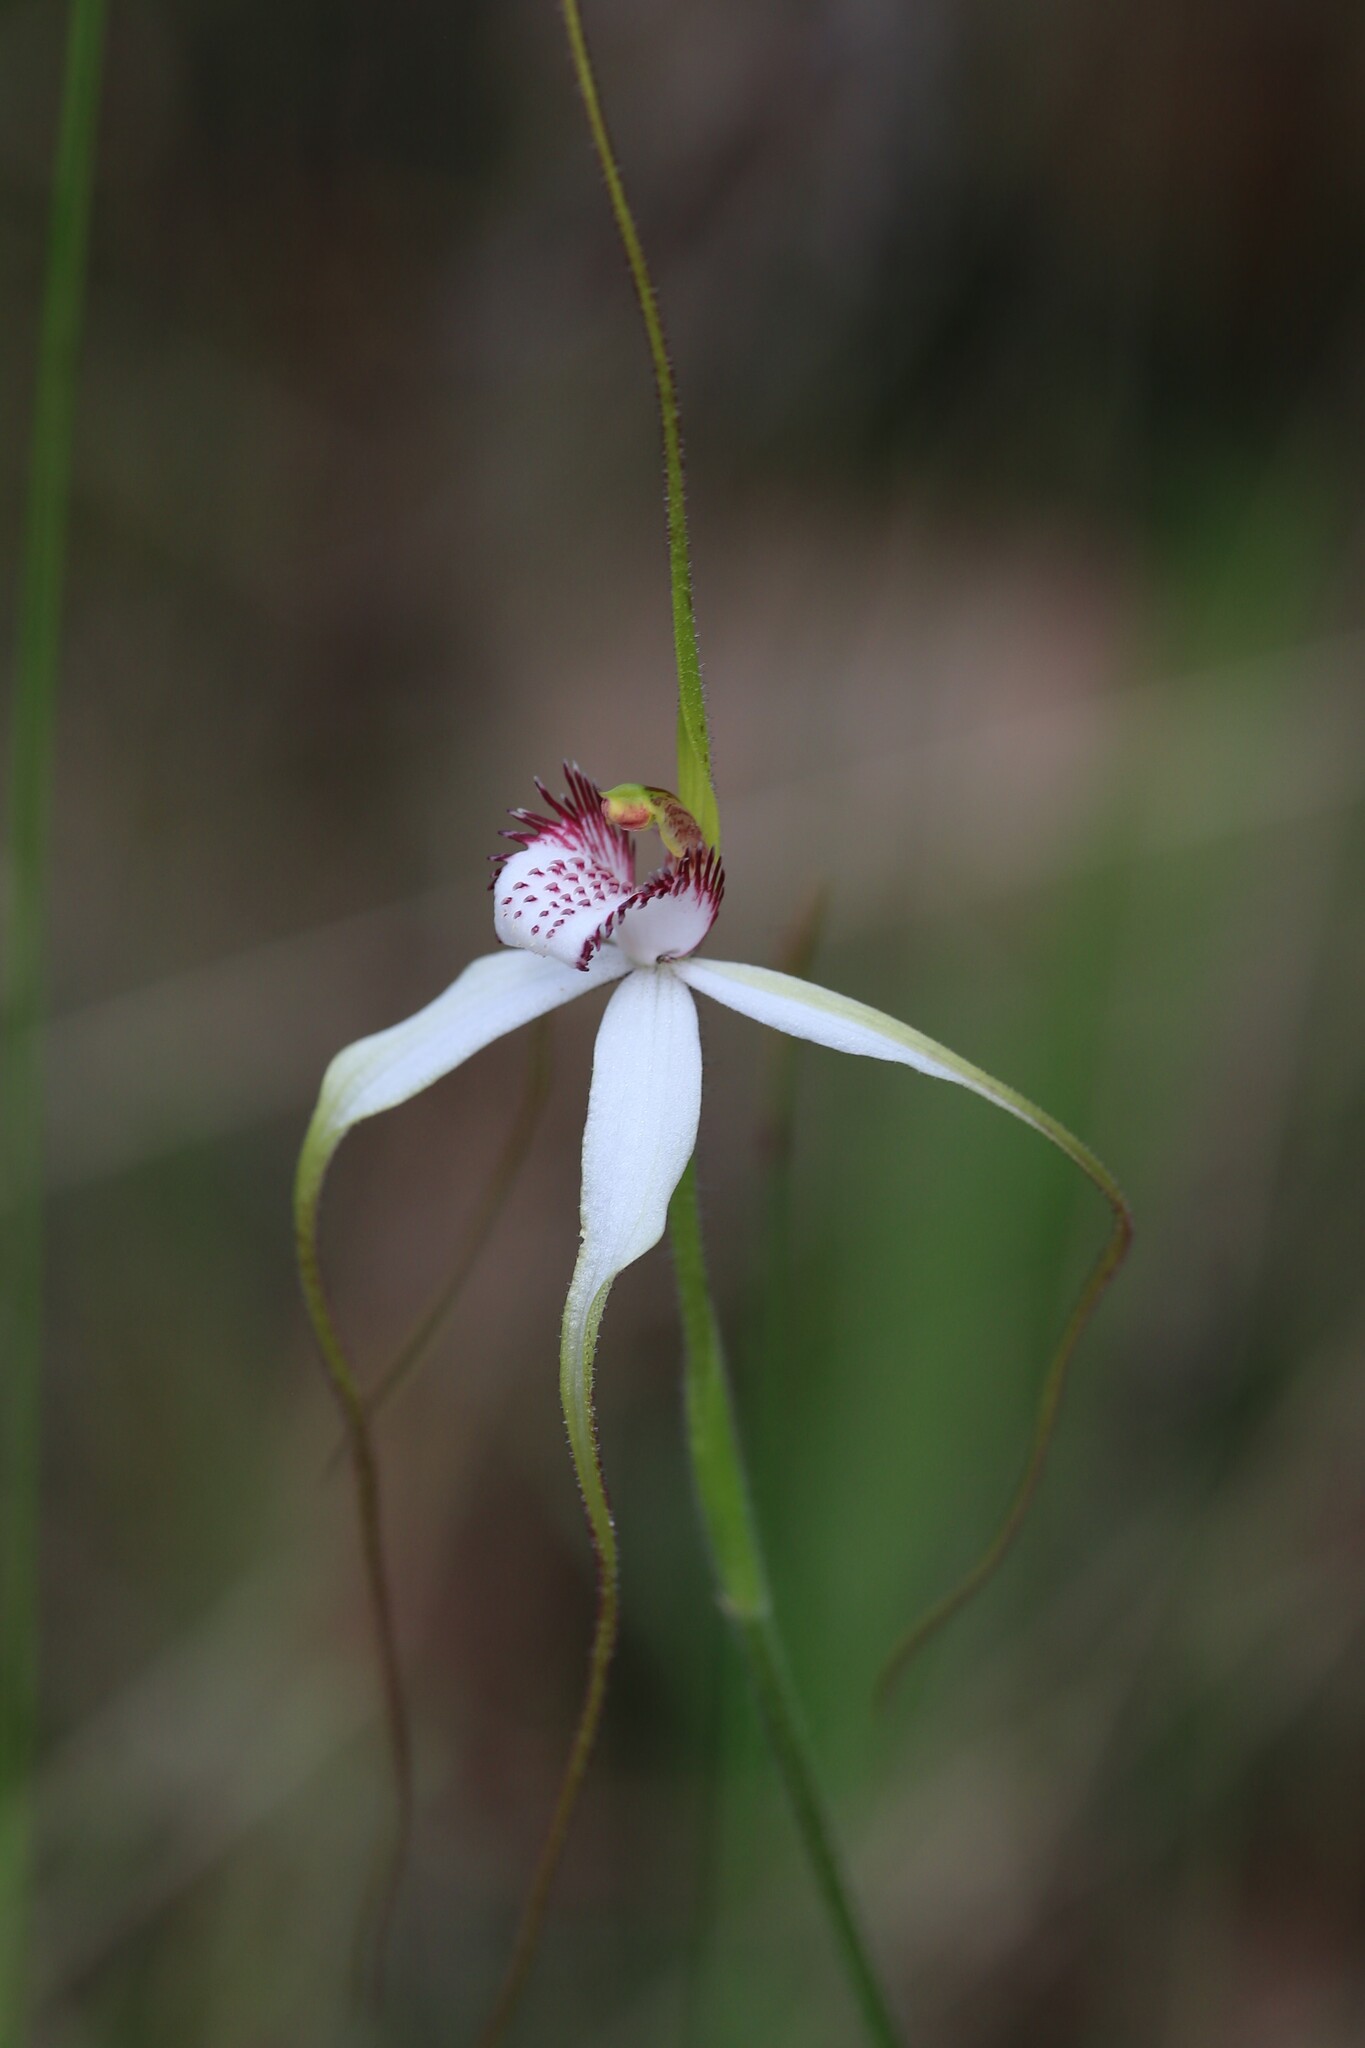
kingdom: Plantae
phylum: Tracheophyta
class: Liliopsida
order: Asparagales
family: Orchidaceae
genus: Caladenia
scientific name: Caladenia longicauda
